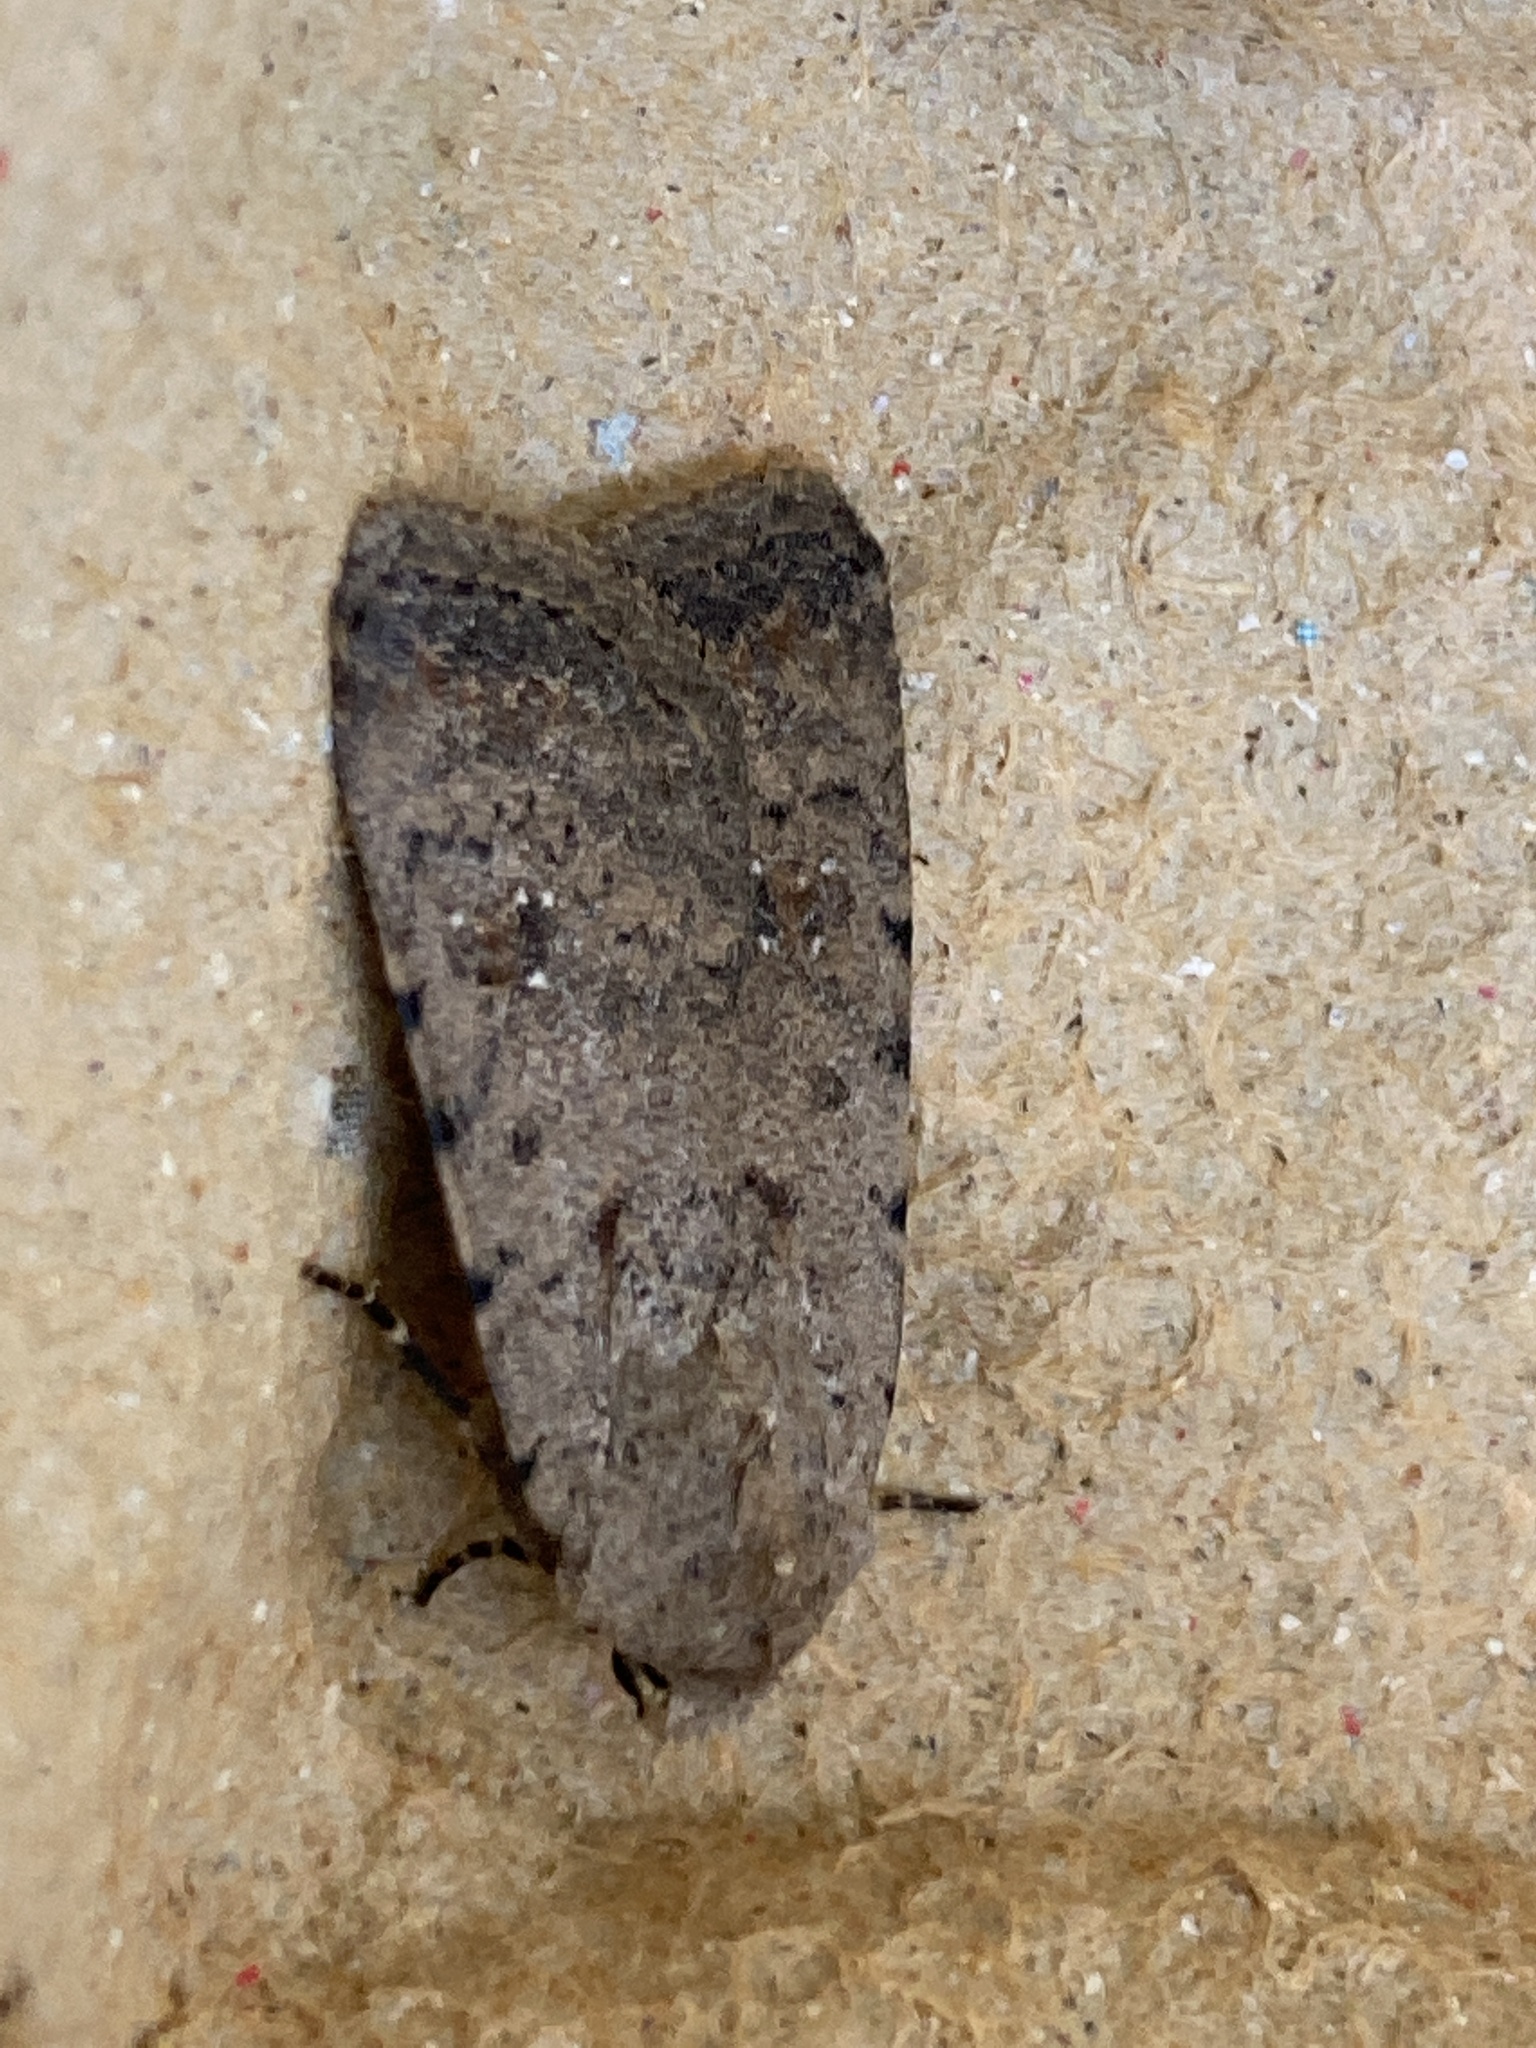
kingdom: Animalia
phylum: Arthropoda
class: Insecta
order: Lepidoptera
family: Noctuidae
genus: Caradrina
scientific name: Caradrina clavipalpis
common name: Pale mottled willow
